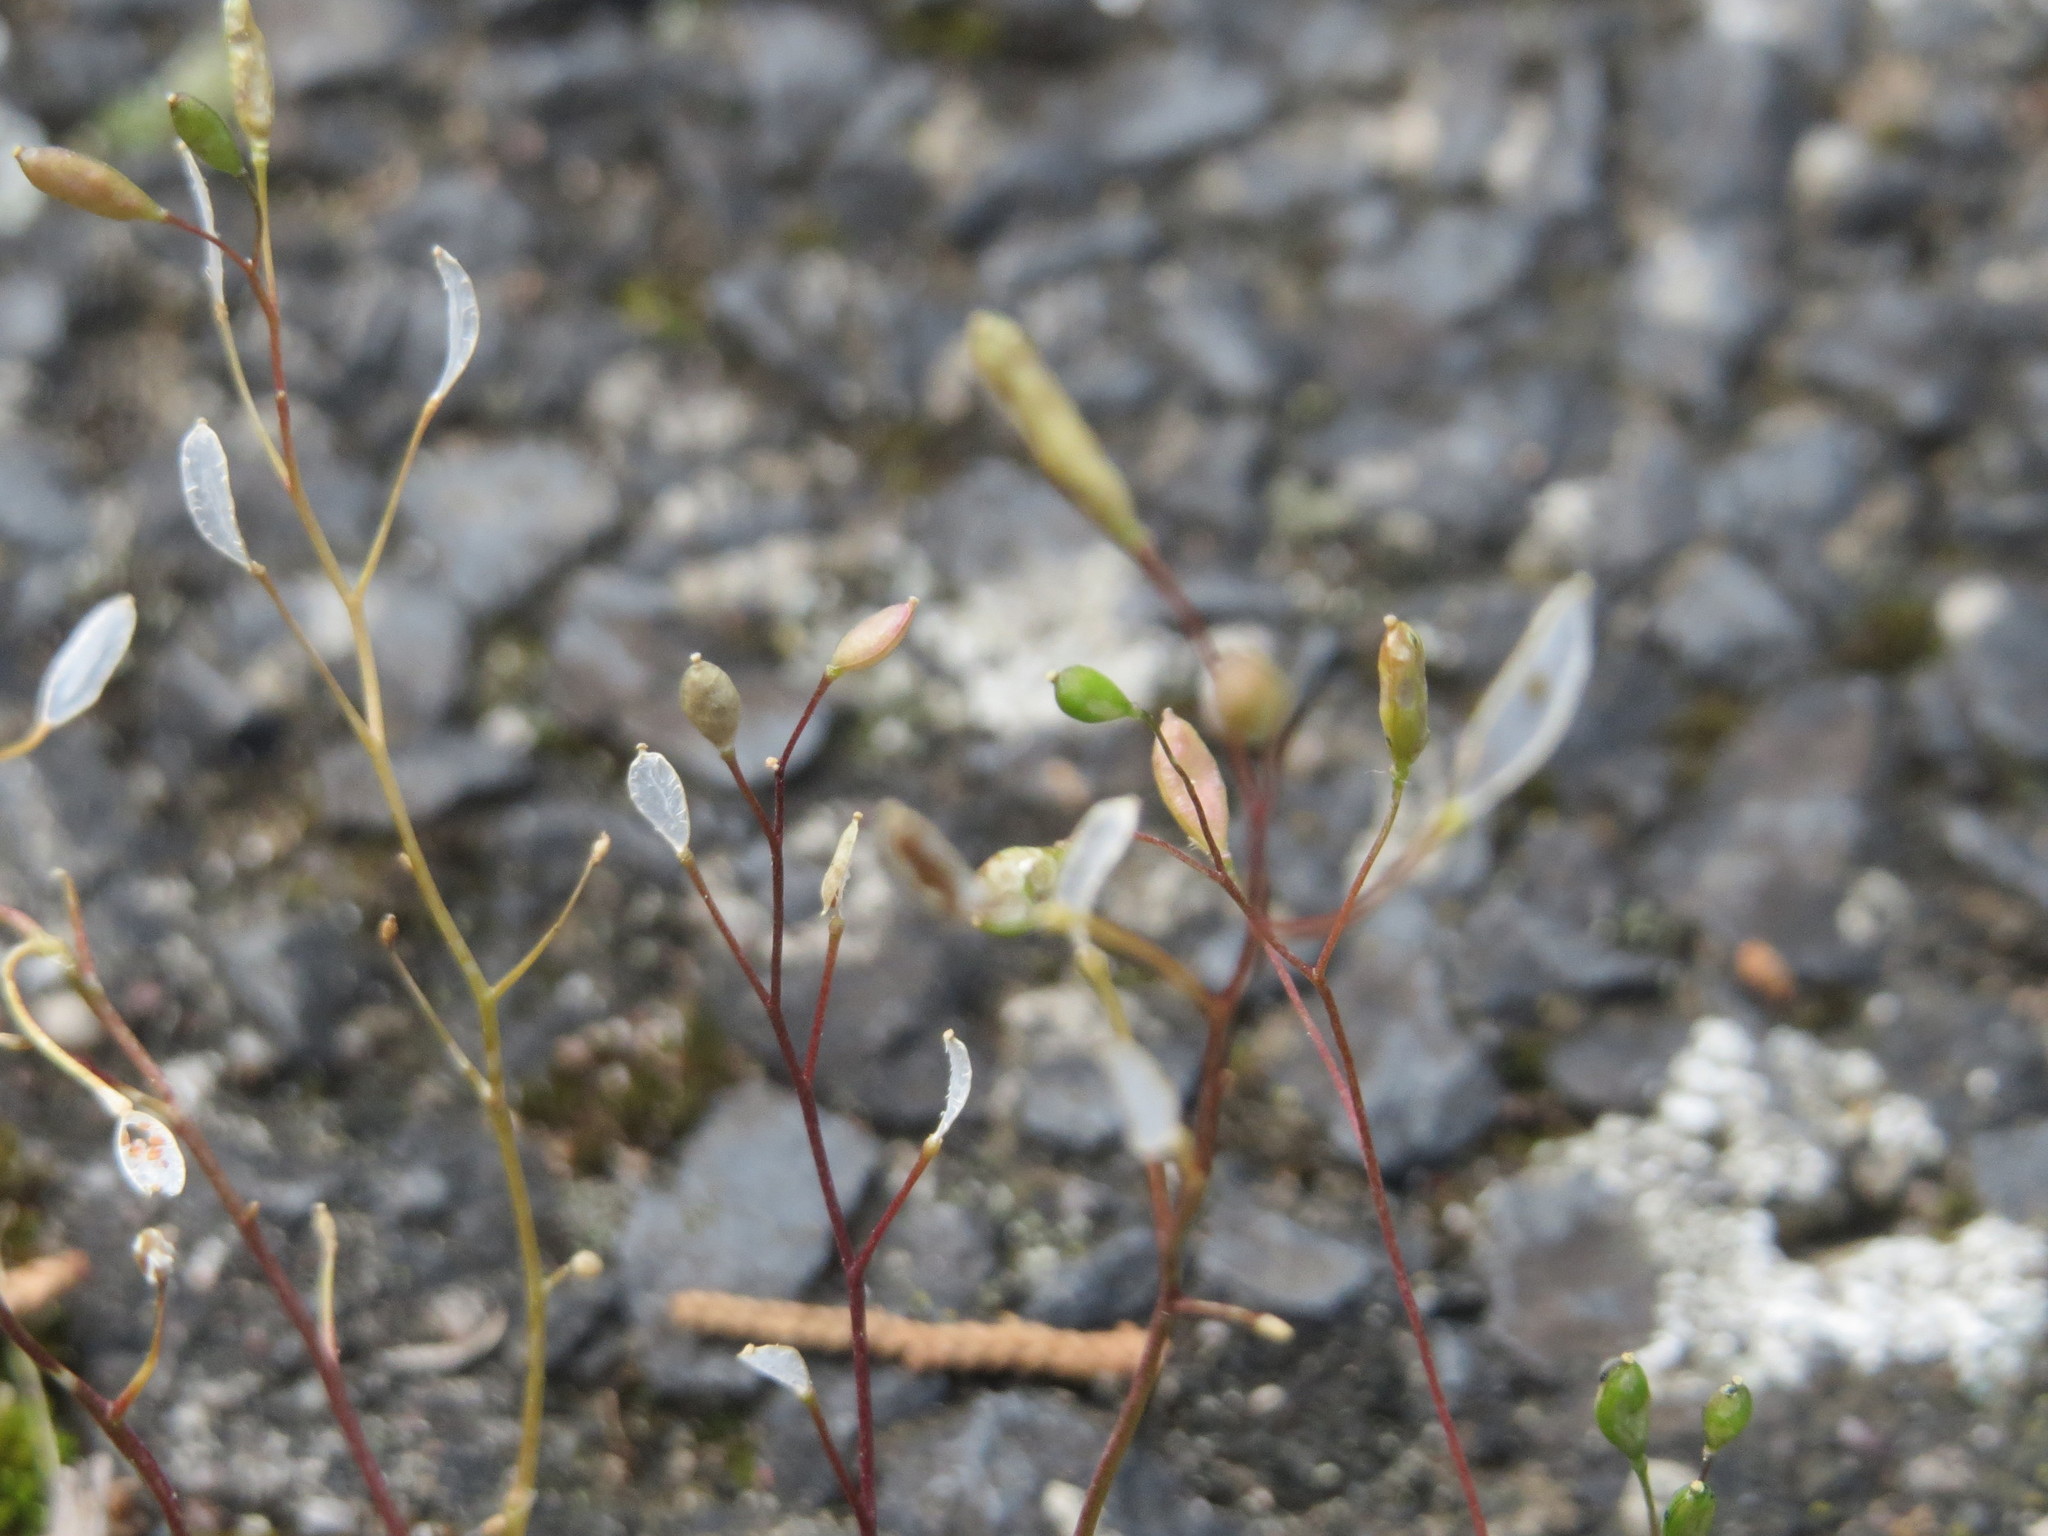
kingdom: Plantae
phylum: Tracheophyta
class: Magnoliopsida
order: Brassicales
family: Brassicaceae
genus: Draba
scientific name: Draba verna
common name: Spring draba
